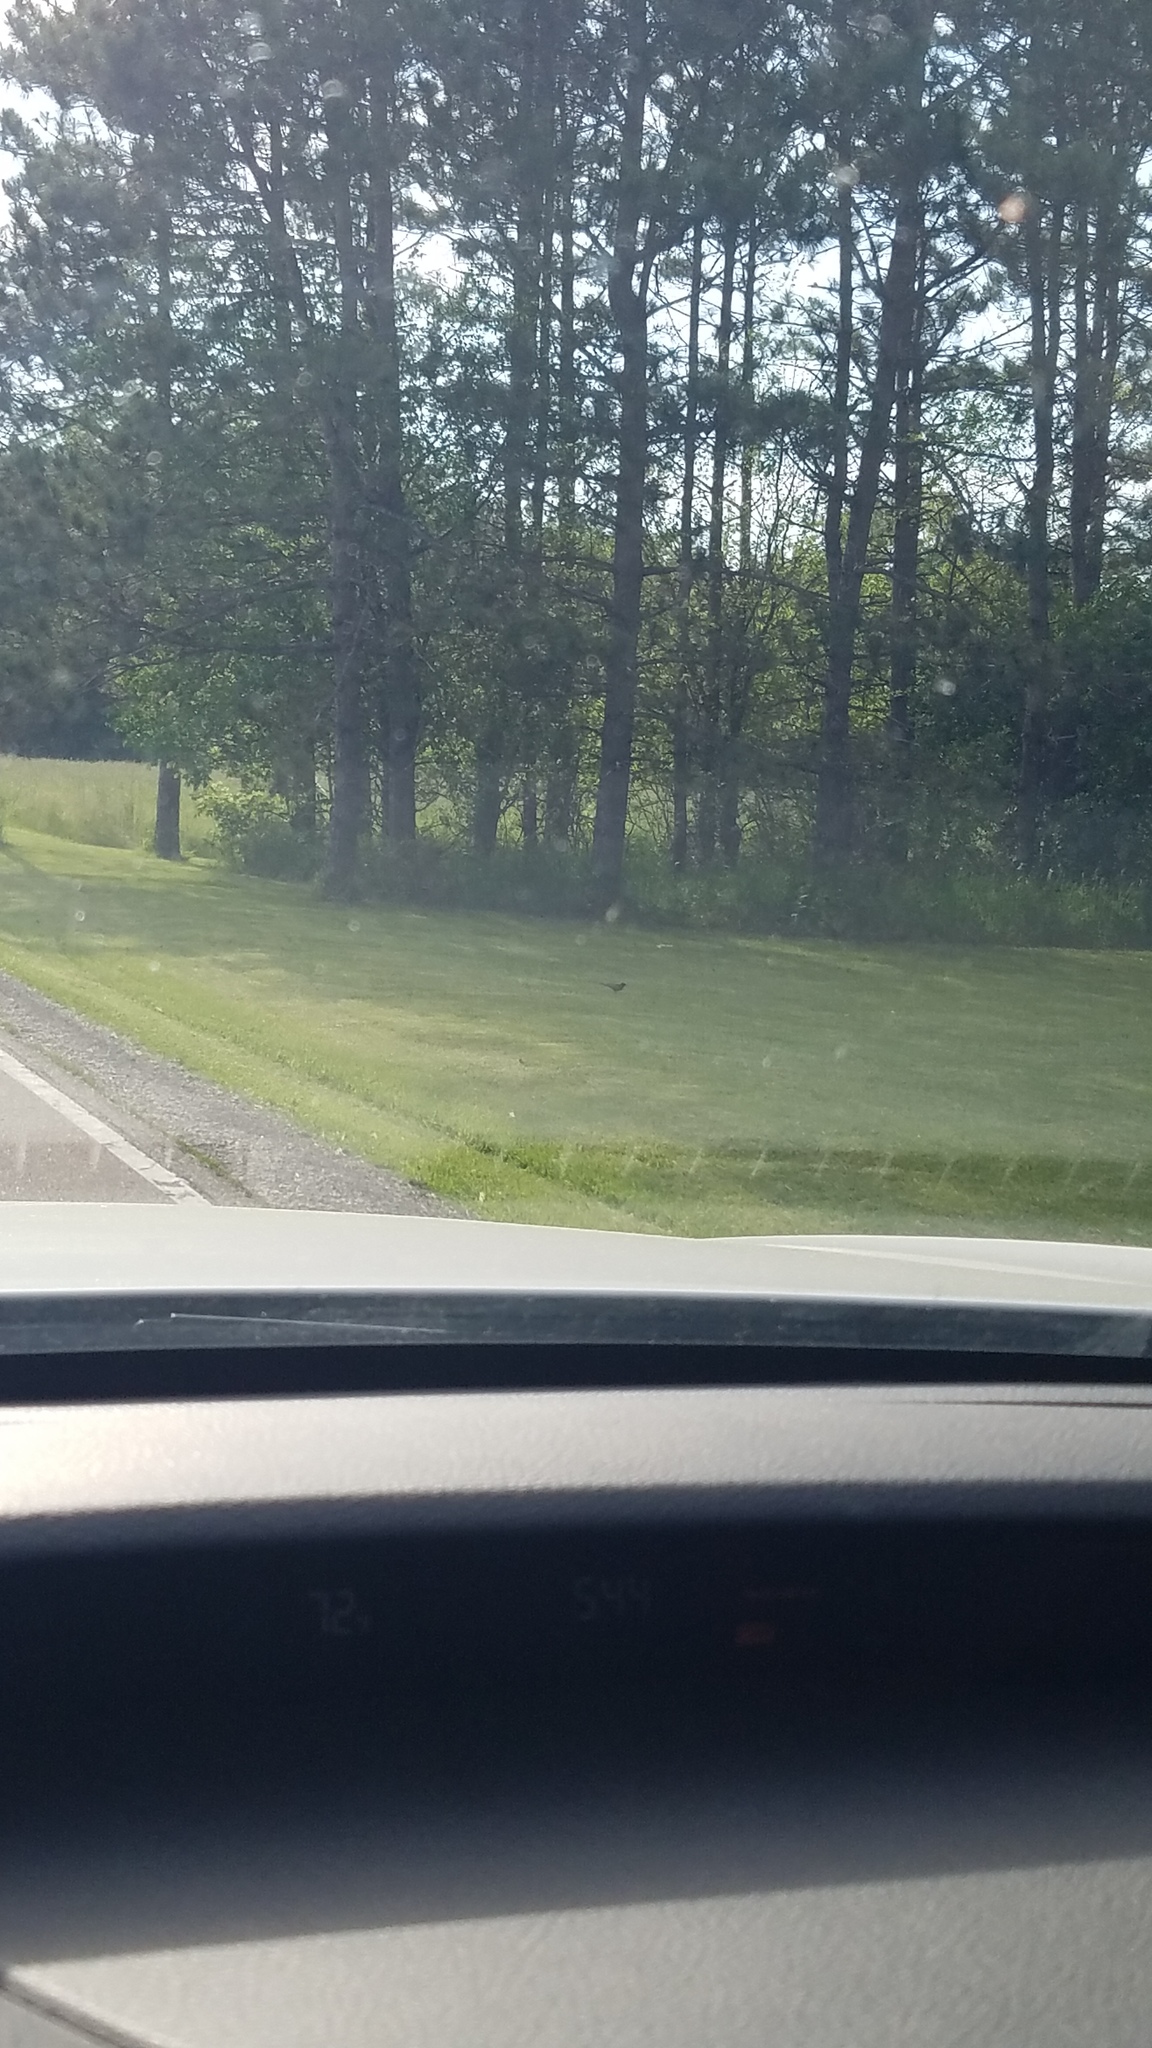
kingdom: Animalia
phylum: Chordata
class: Aves
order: Passeriformes
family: Turdidae
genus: Turdus
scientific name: Turdus migratorius
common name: American robin
